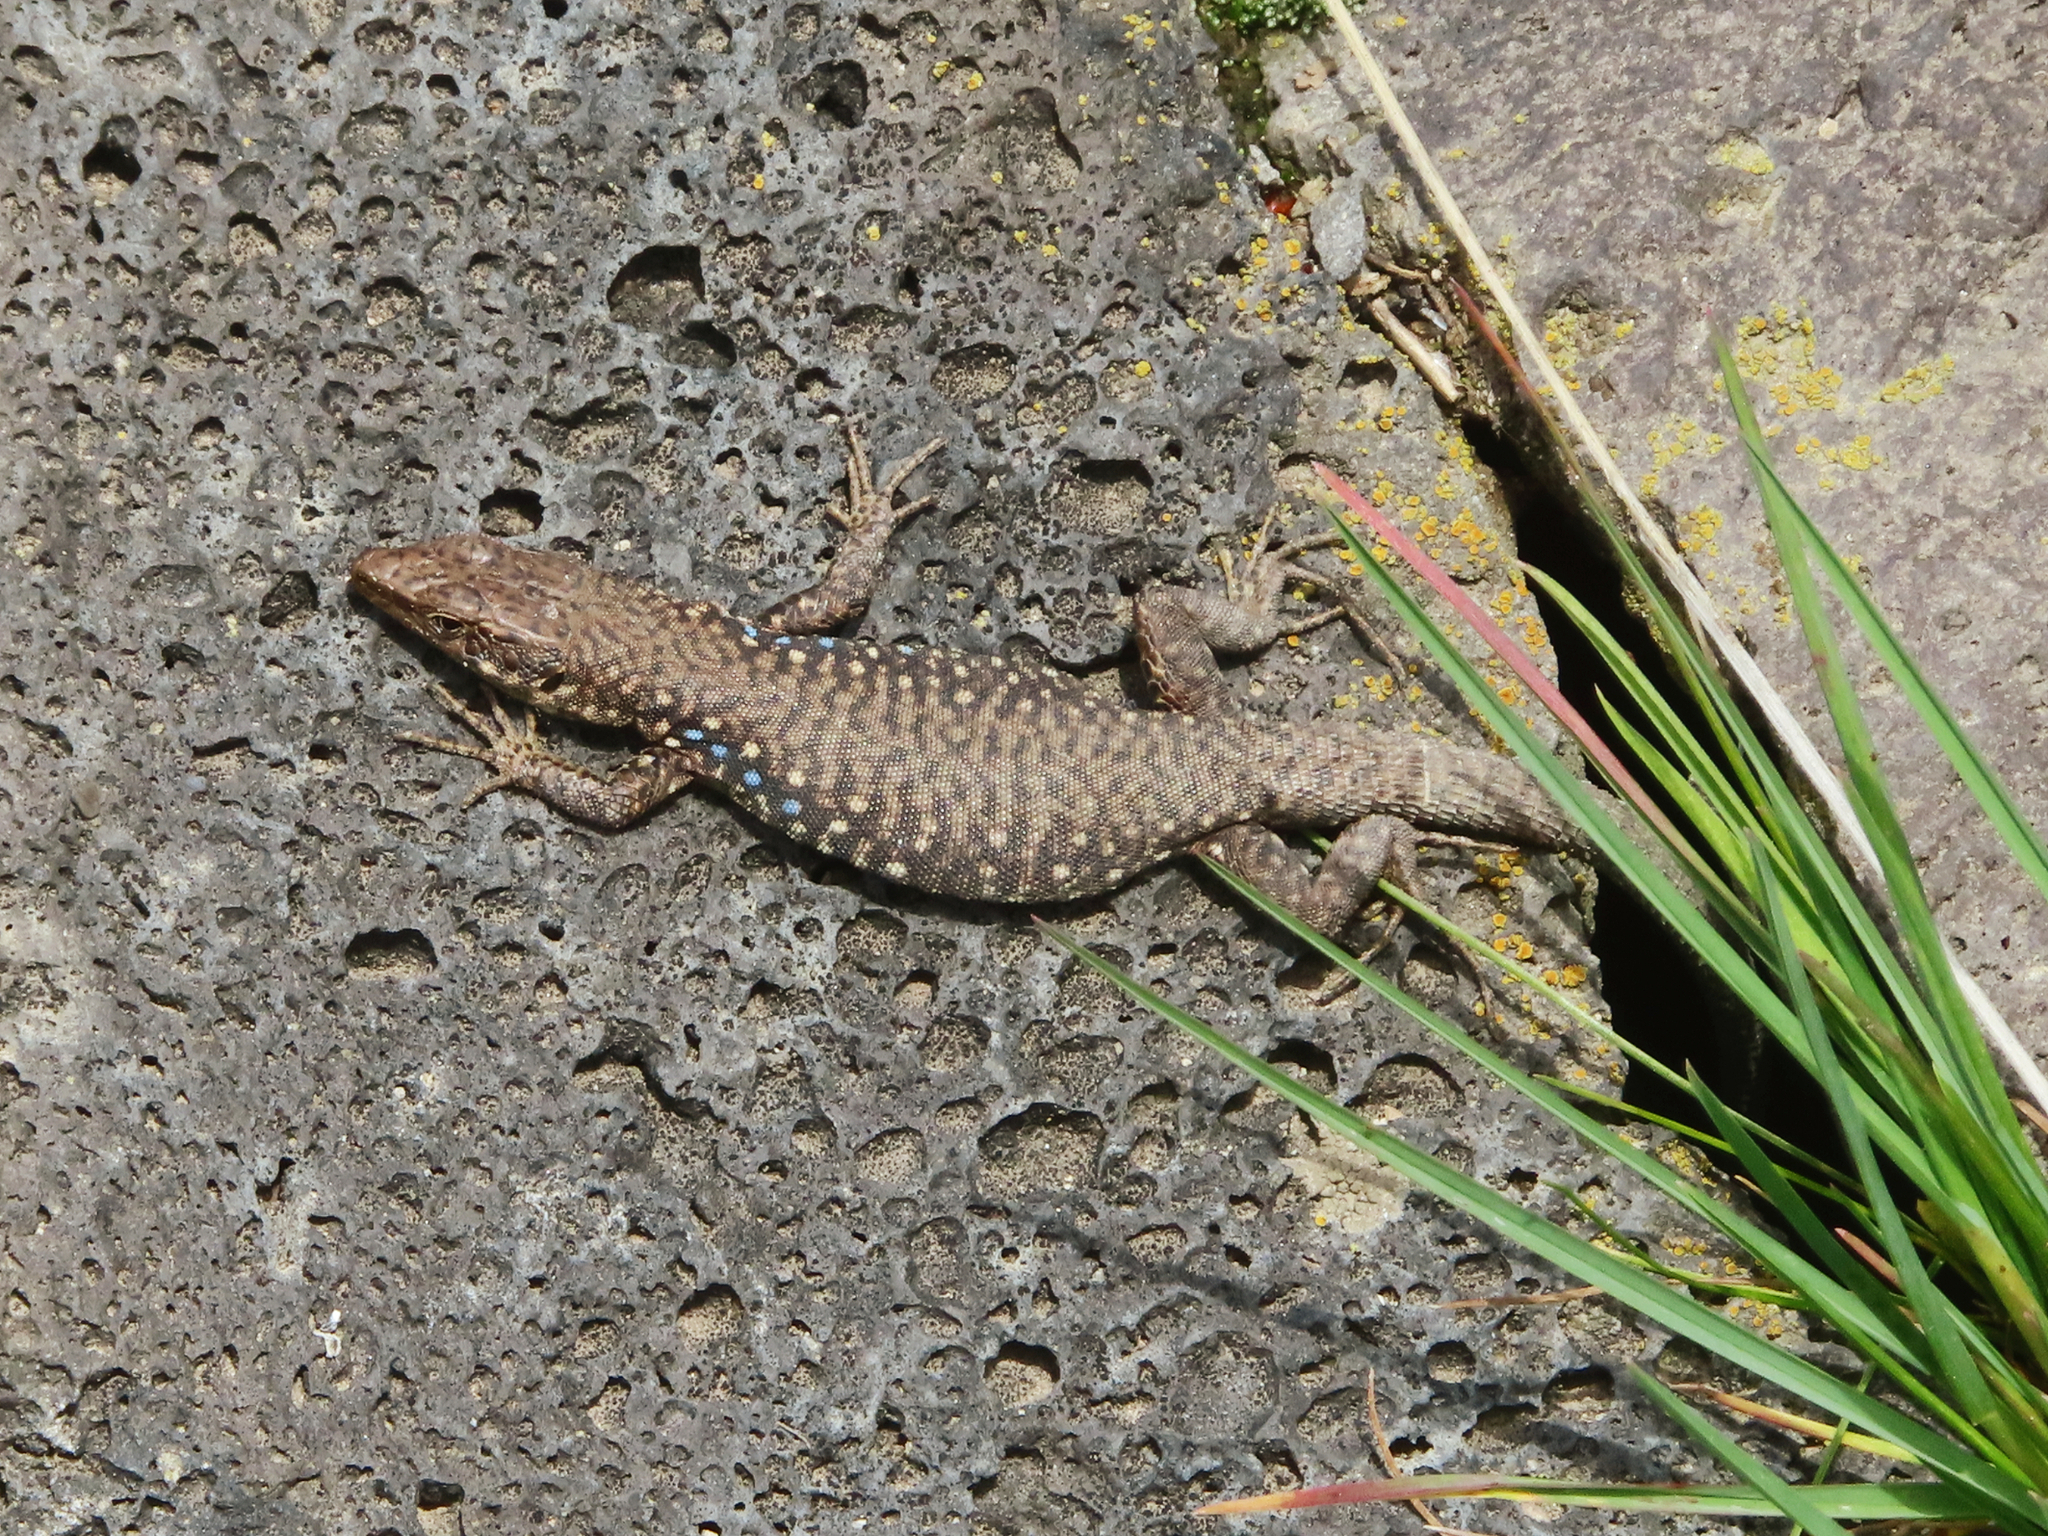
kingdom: Animalia
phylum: Chordata
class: Squamata
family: Lacertidae
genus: Darevskia
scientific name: Darevskia
